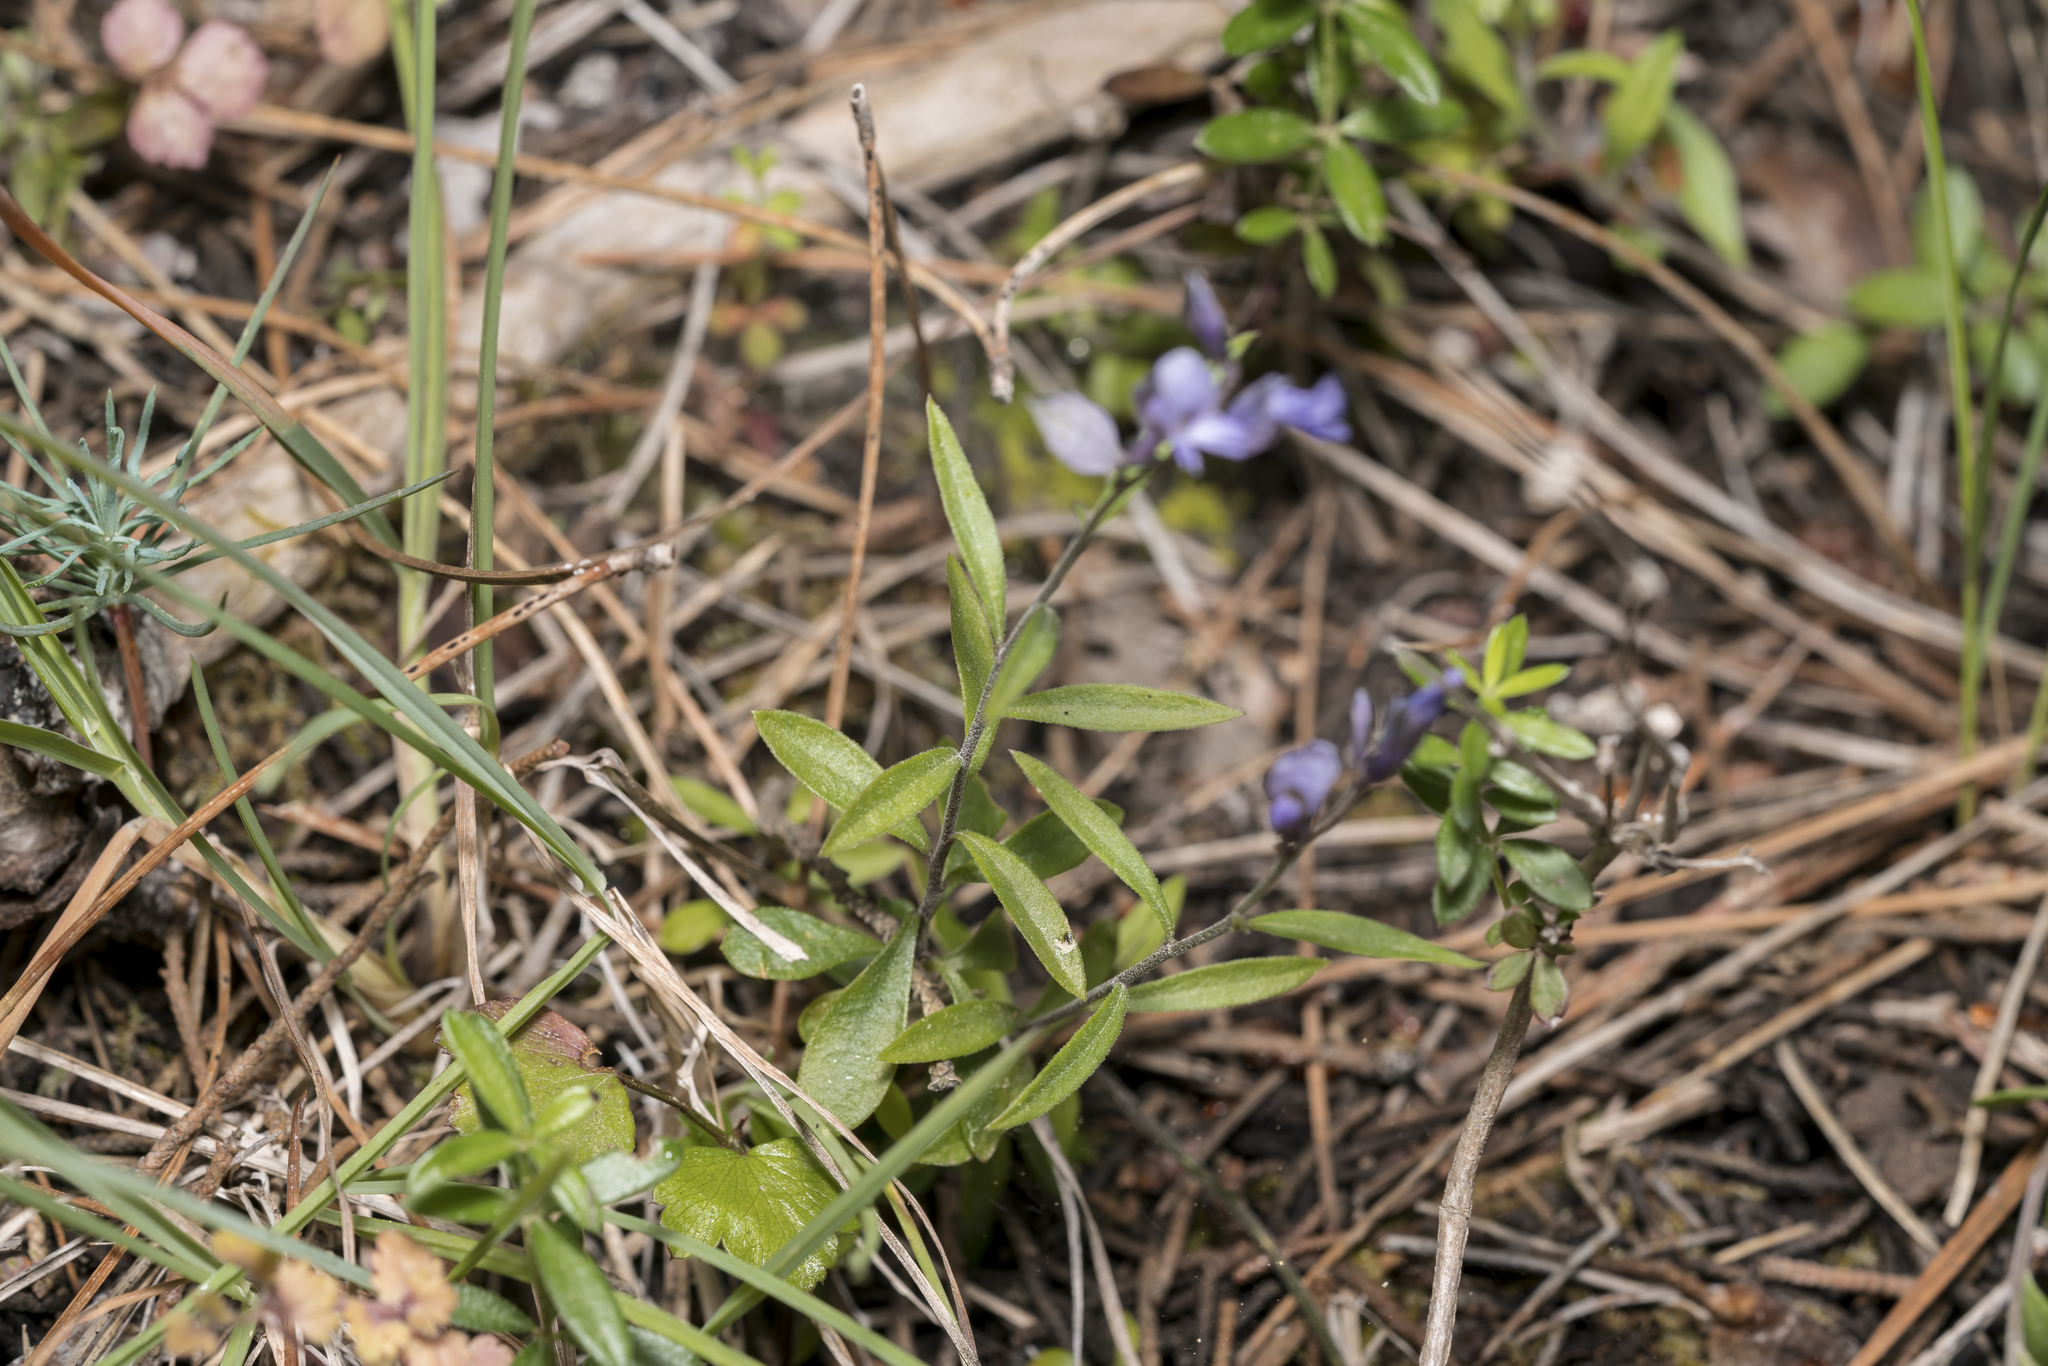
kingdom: Plantae
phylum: Tracheophyta
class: Magnoliopsida
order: Fabales
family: Polygalaceae
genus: Polygala
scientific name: Polygala venulosa
